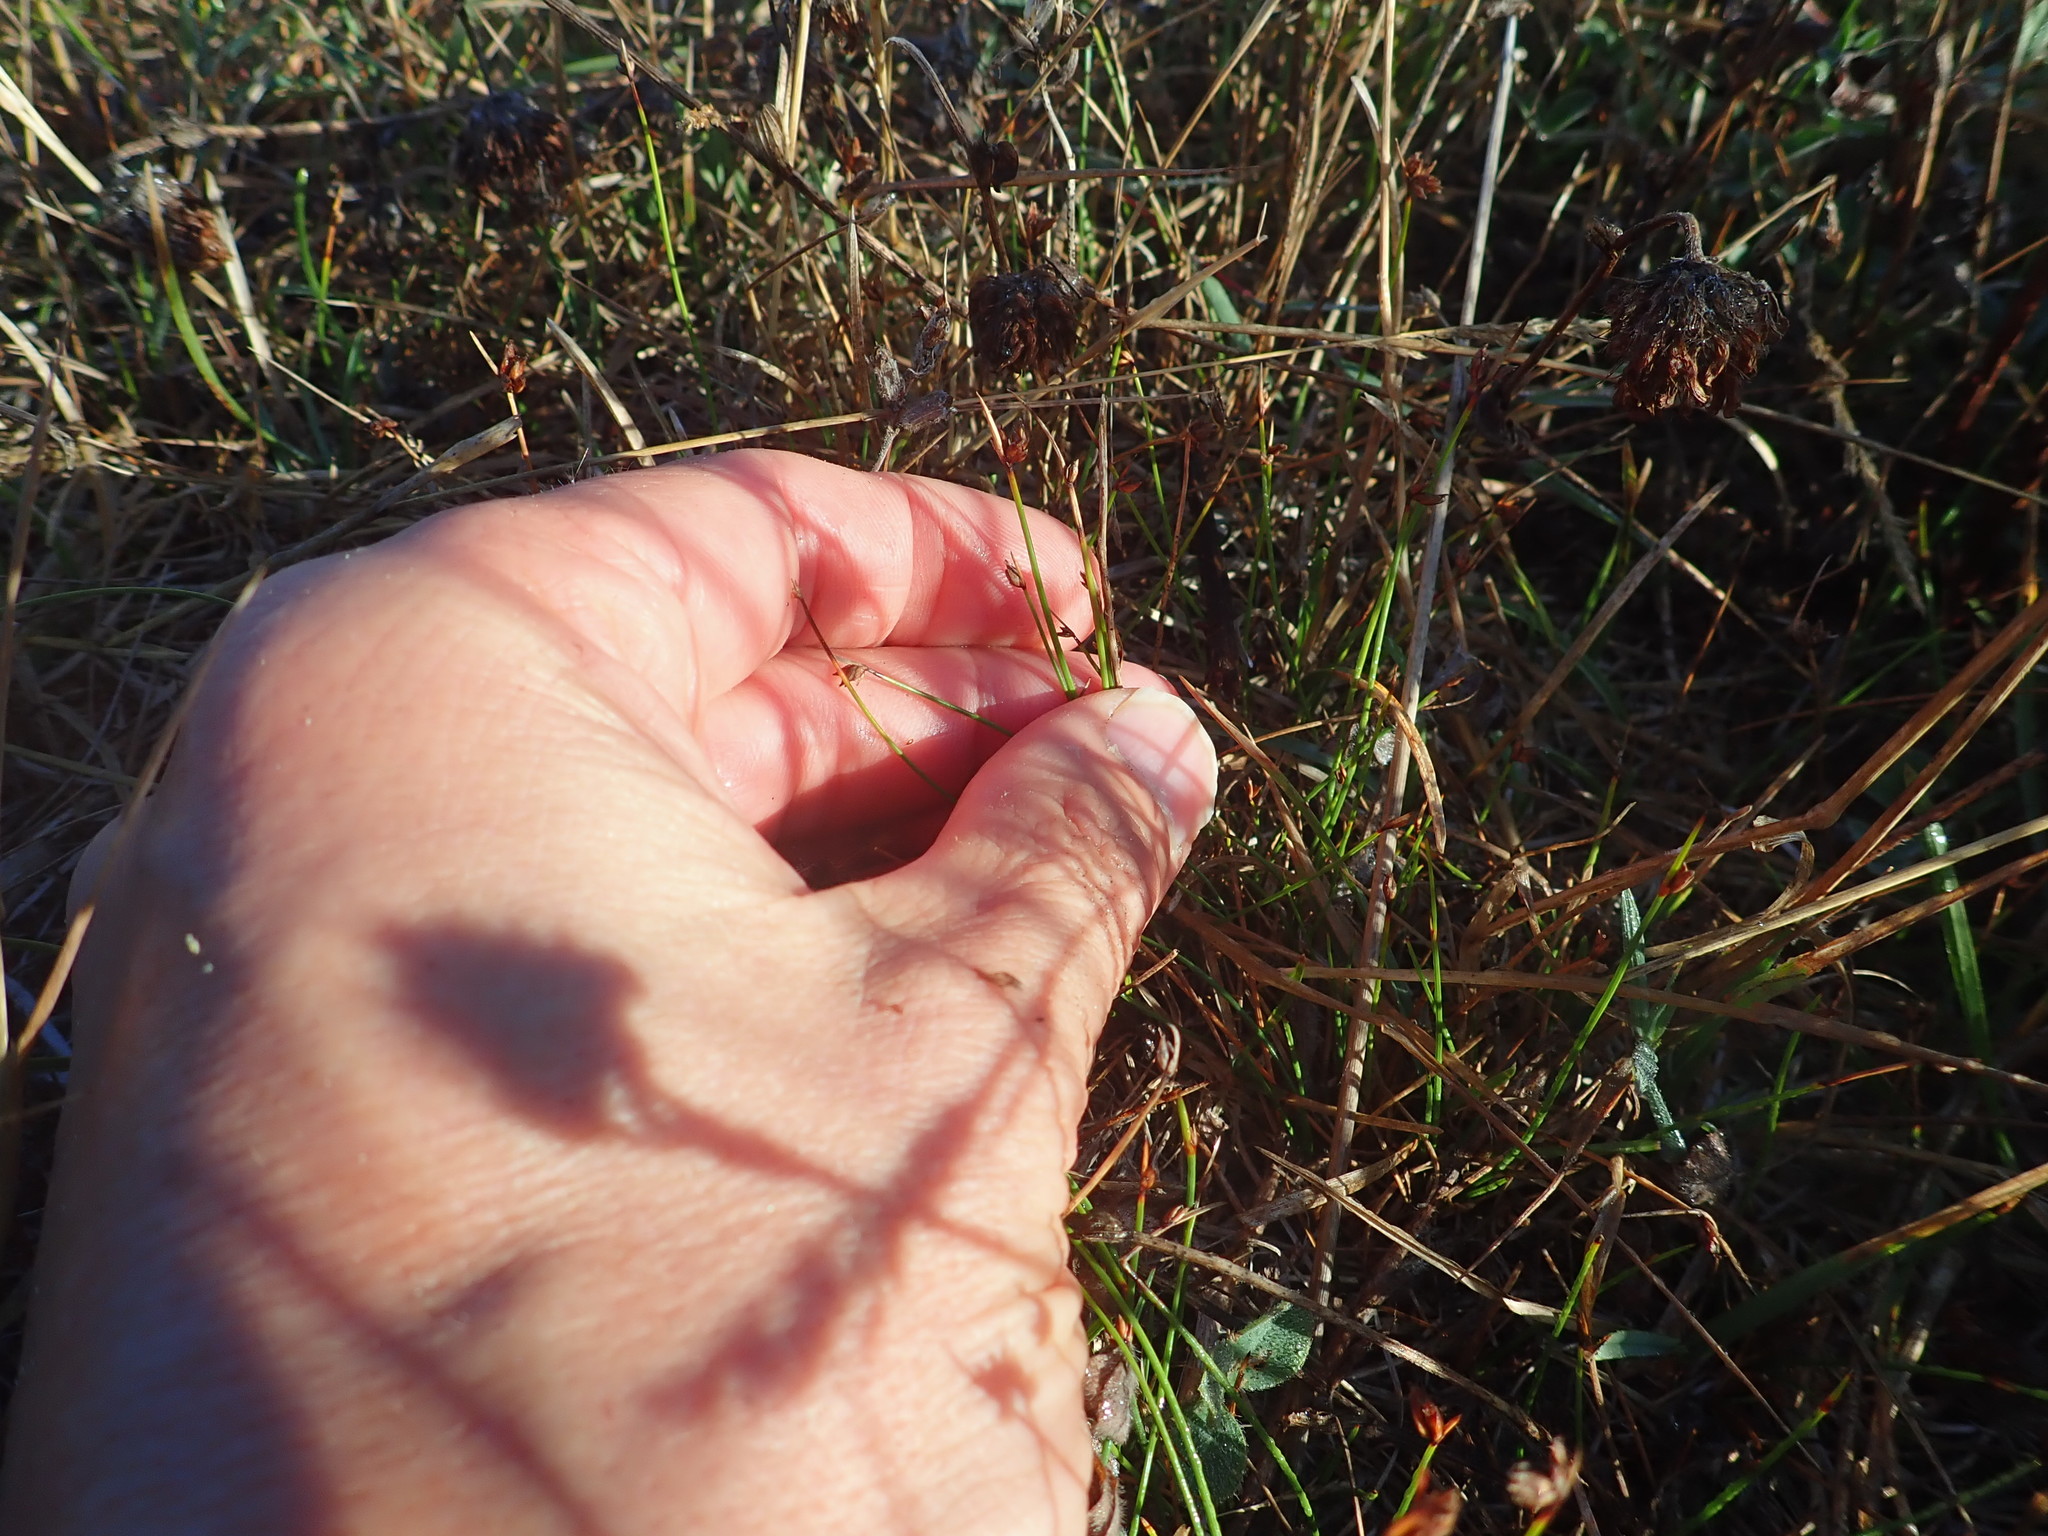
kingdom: Plantae
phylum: Tracheophyta
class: Liliopsida
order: Poales
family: Cyperaceae
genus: Schoenus
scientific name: Schoenus nitens
